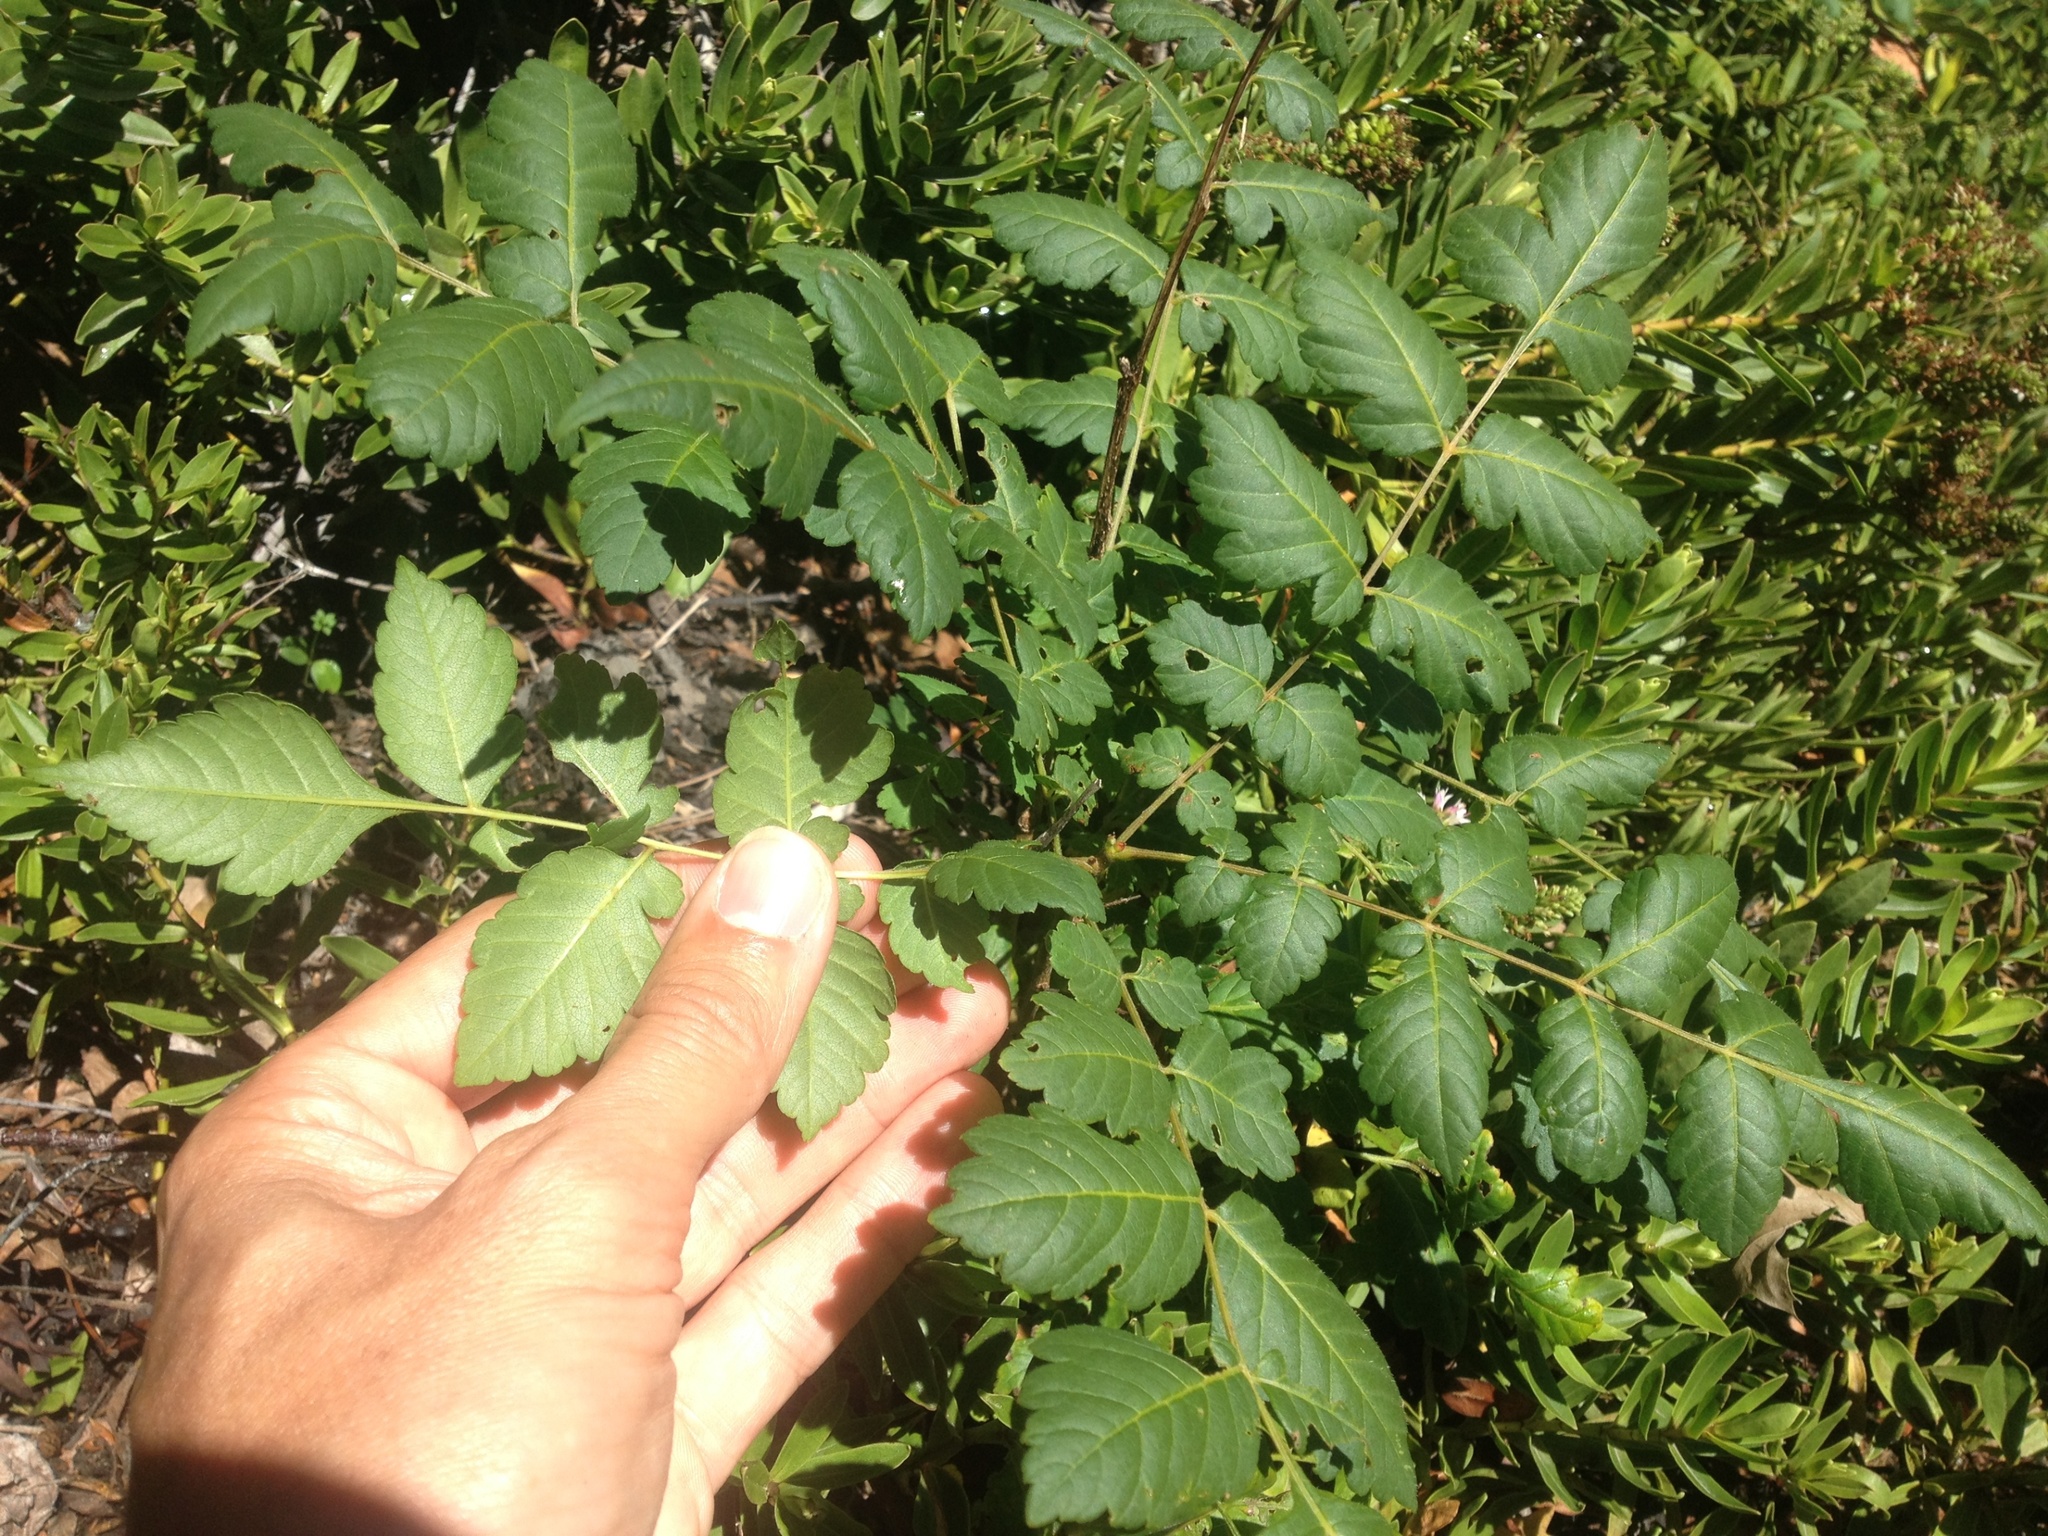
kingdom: Plantae
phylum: Tracheophyta
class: Magnoliopsida
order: Sapindales
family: Sapindaceae
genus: Koelreuteria
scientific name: Koelreuteria paniculata
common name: Pride-of-india
